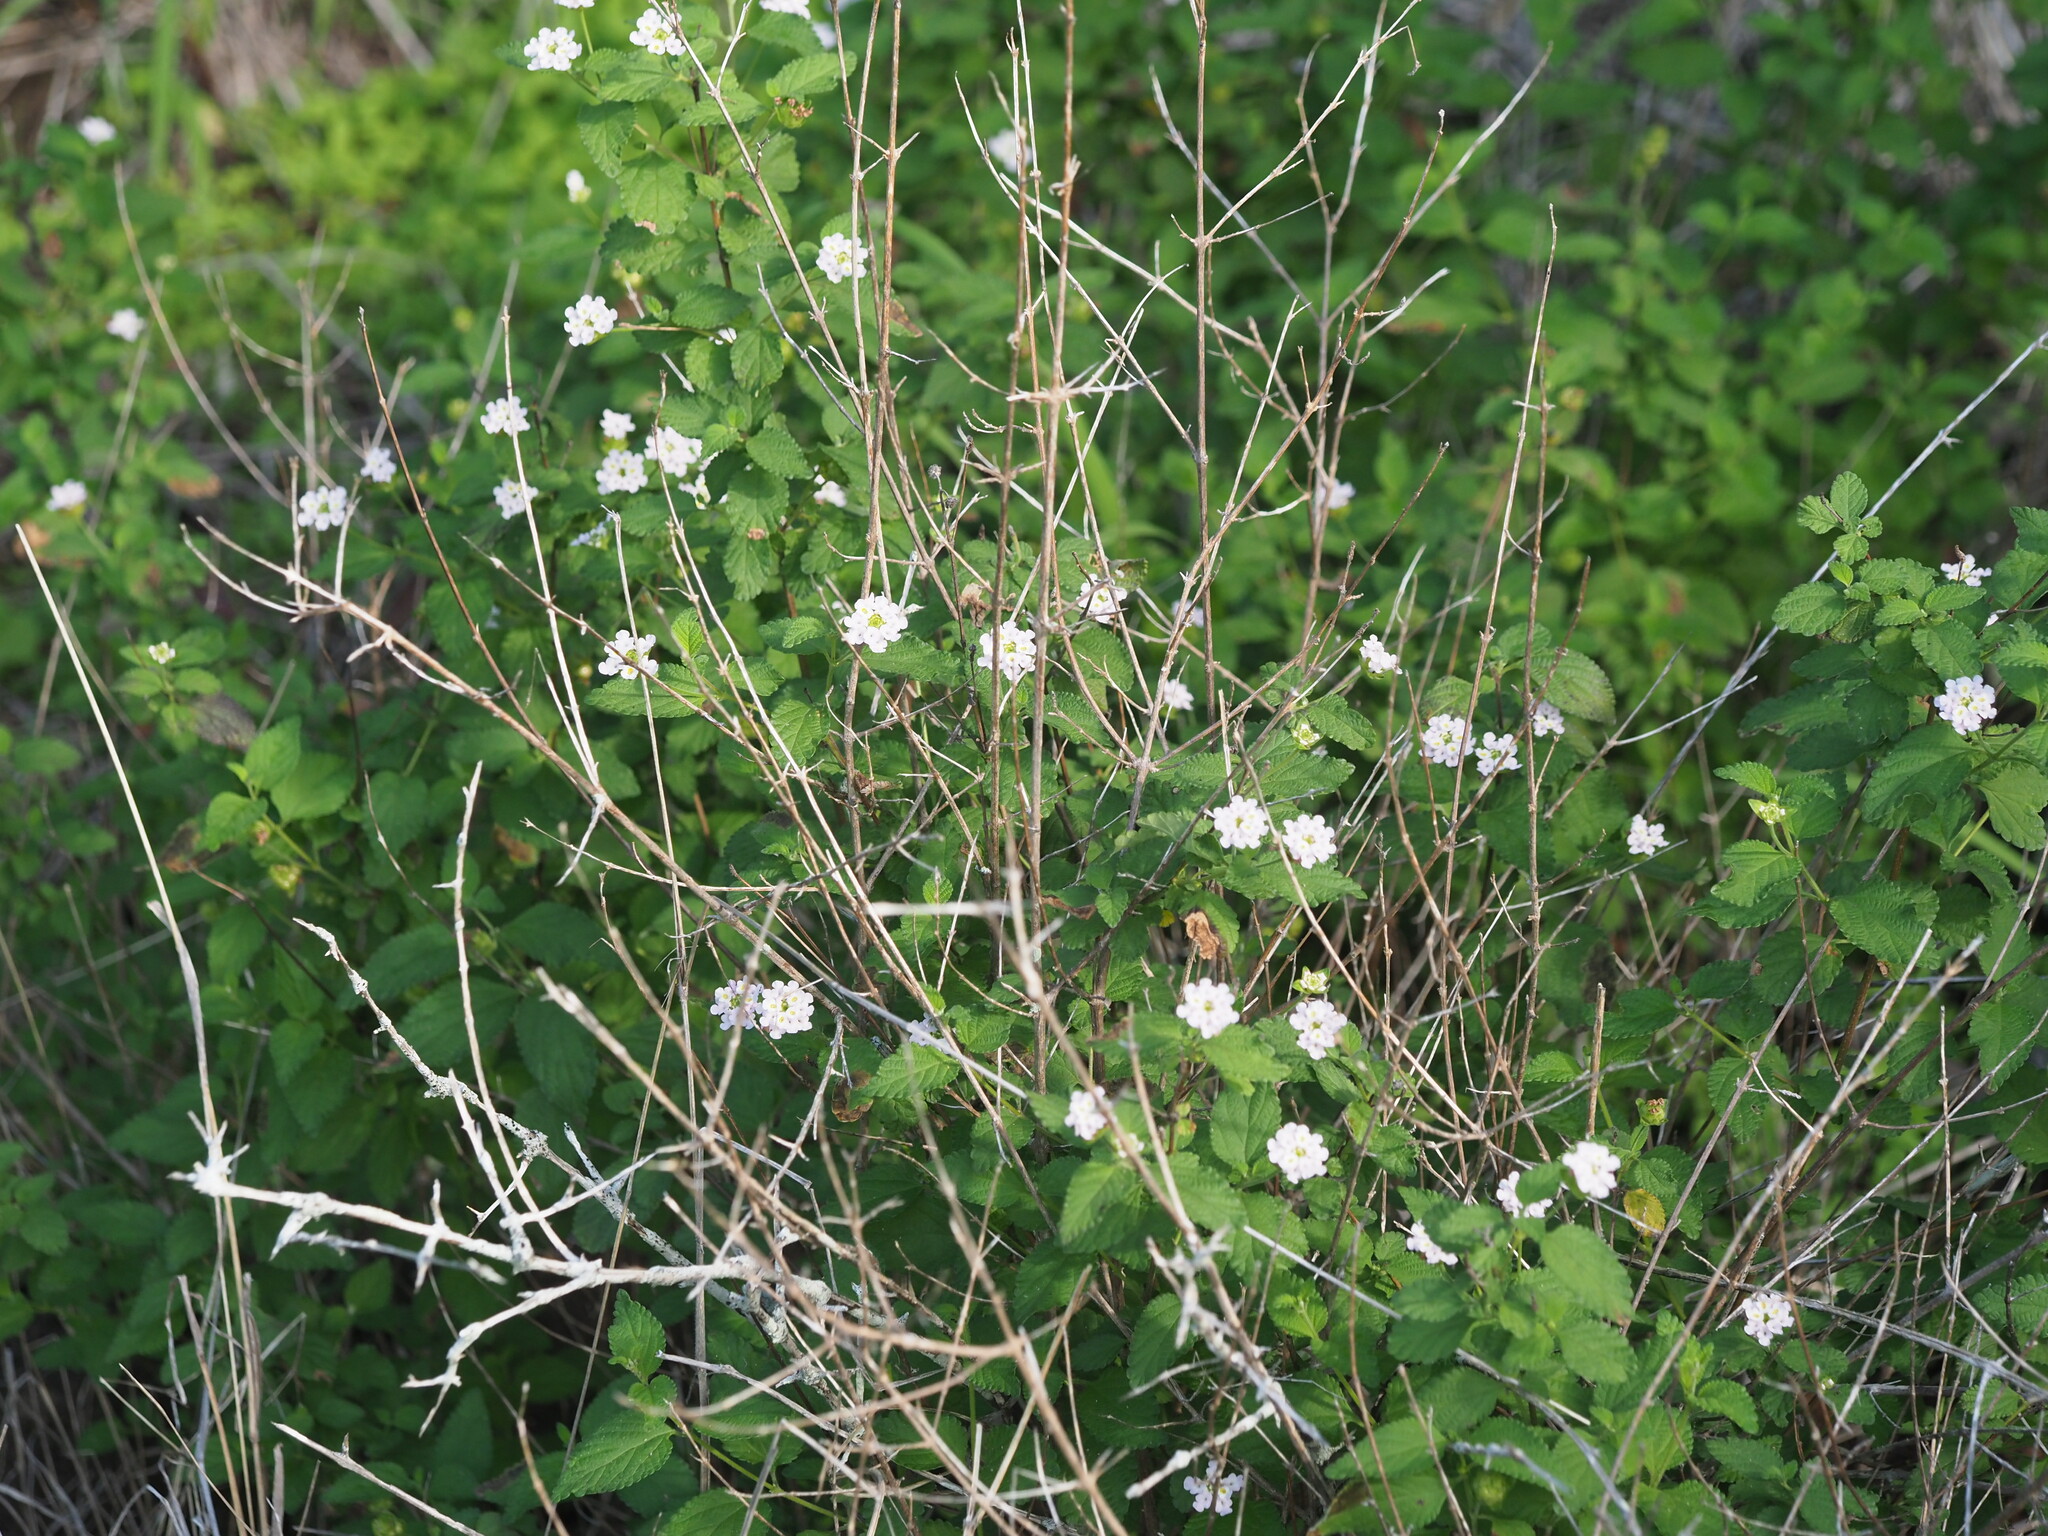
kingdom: Plantae
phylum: Tracheophyta
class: Magnoliopsida
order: Lamiales
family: Verbenaceae
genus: Lantana
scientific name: Lantana velutina
